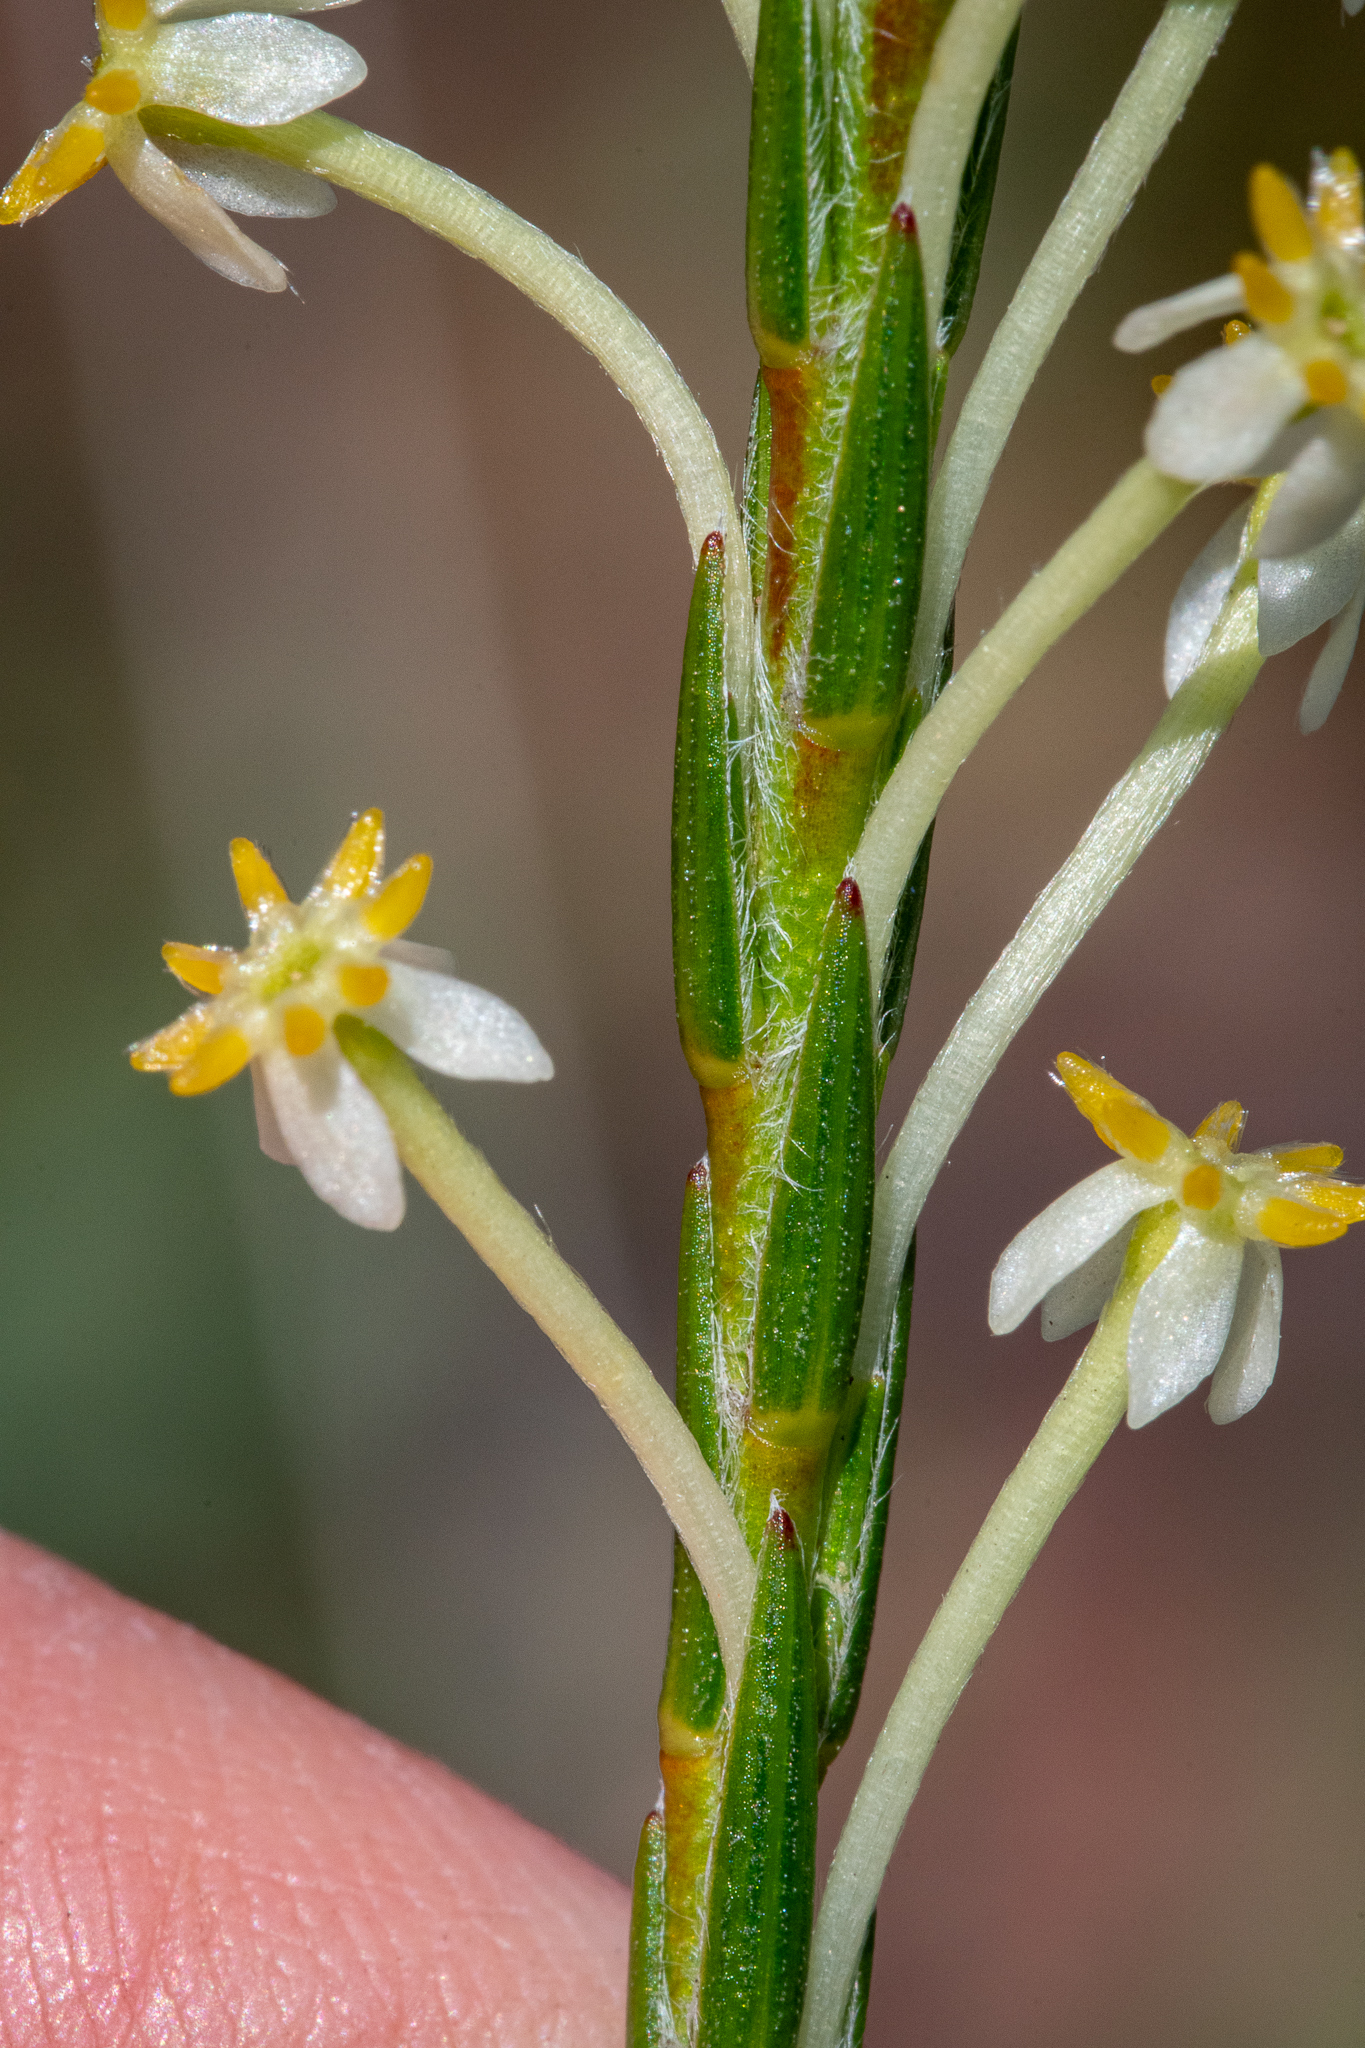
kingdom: Plantae
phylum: Tracheophyta
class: Magnoliopsida
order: Malvales
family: Thymelaeaceae
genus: Struthiola
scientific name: Struthiola ciliata
